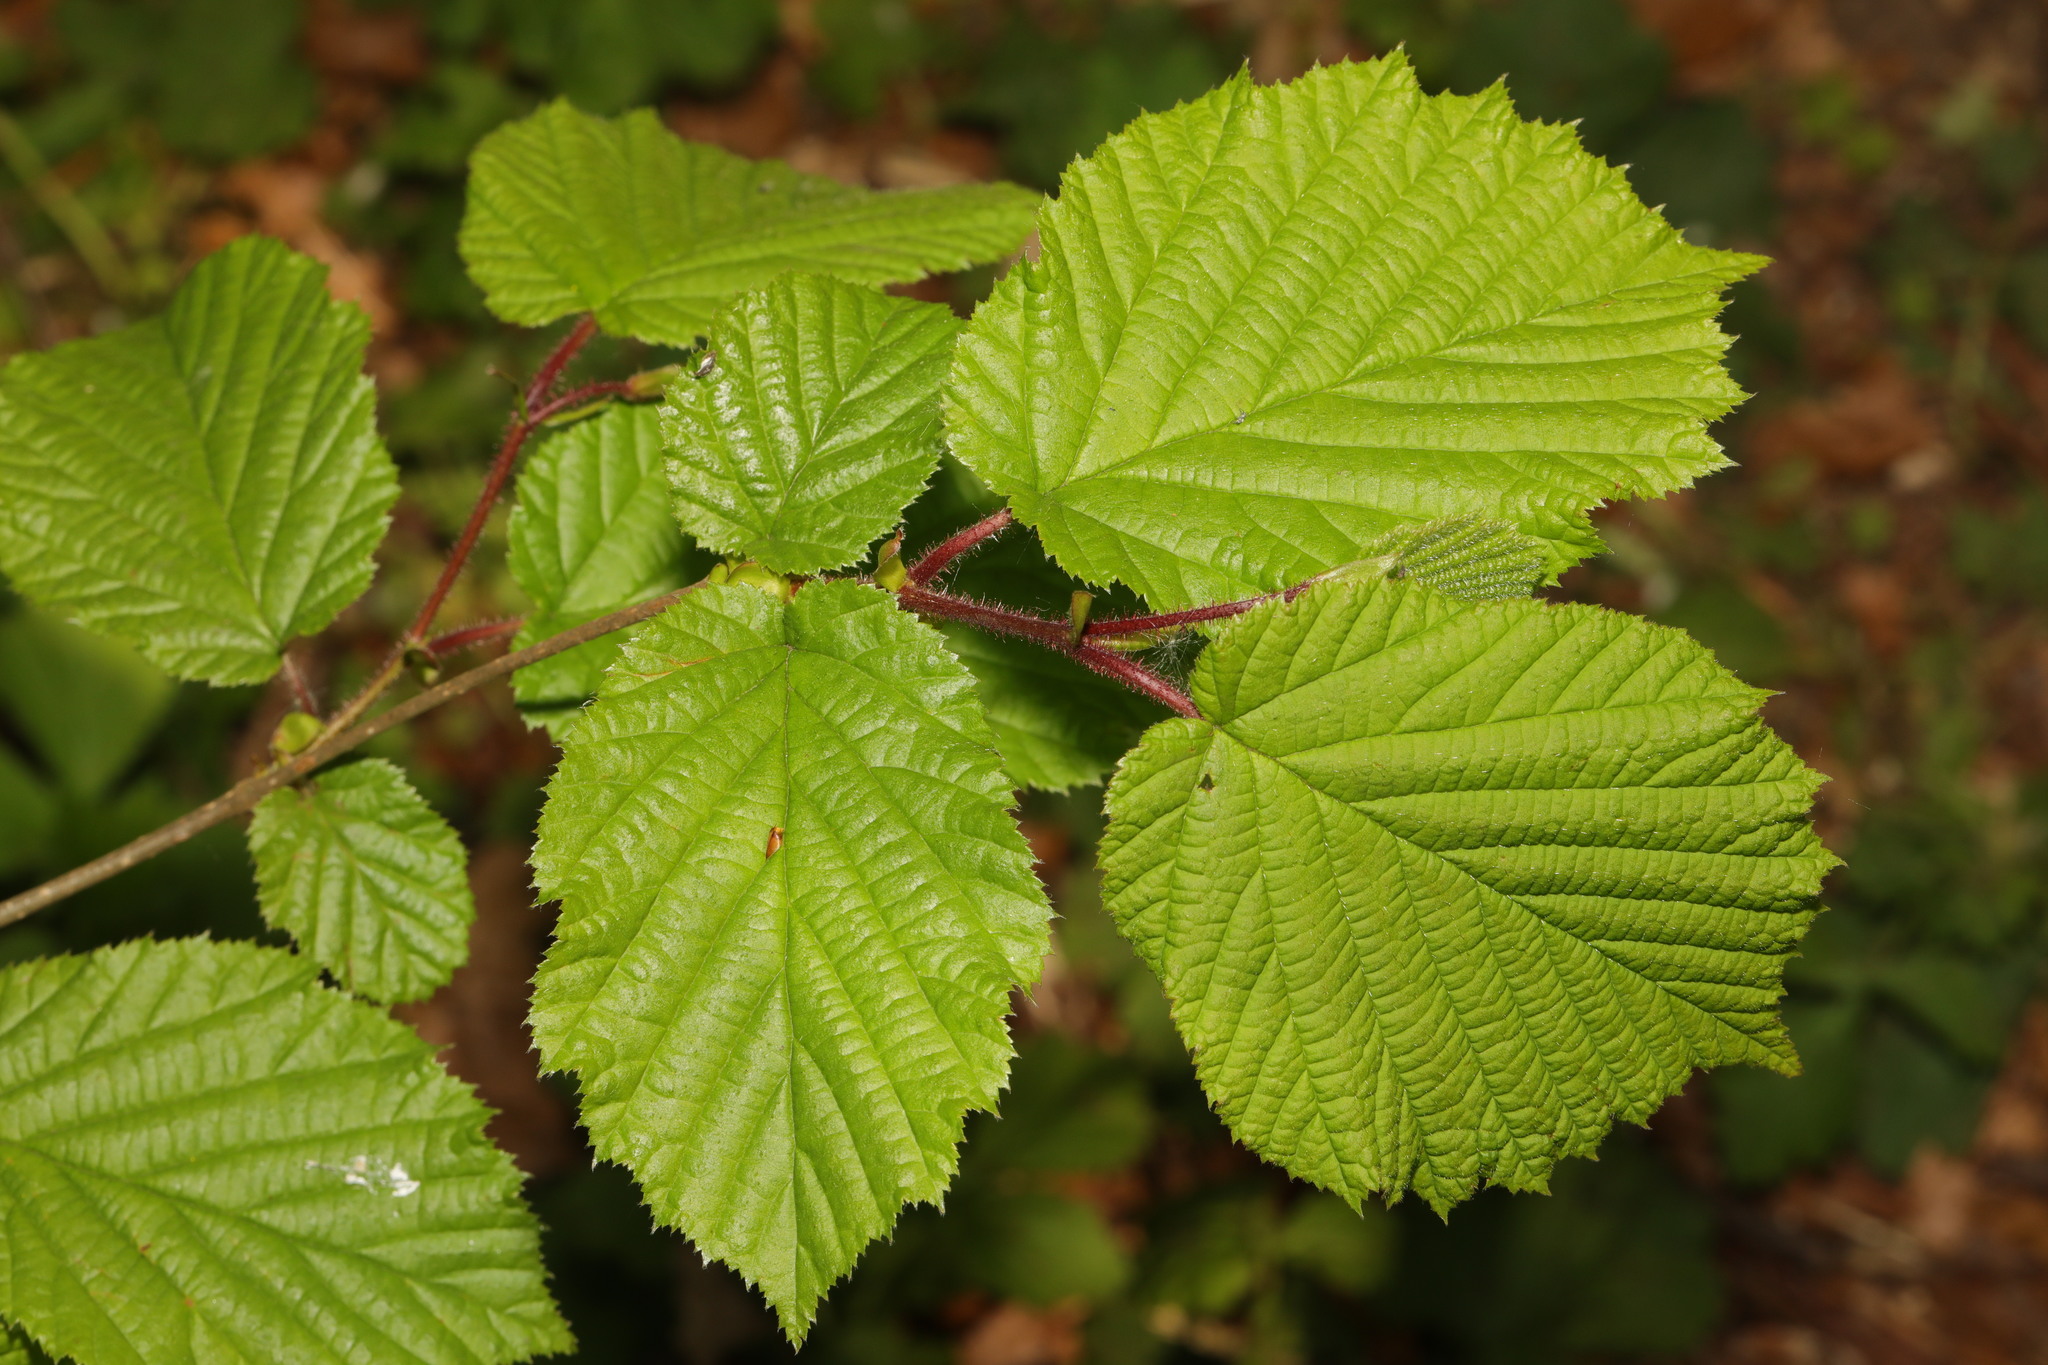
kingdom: Plantae
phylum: Tracheophyta
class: Magnoliopsida
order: Fagales
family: Betulaceae
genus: Corylus
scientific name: Corylus avellana
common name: European hazel
